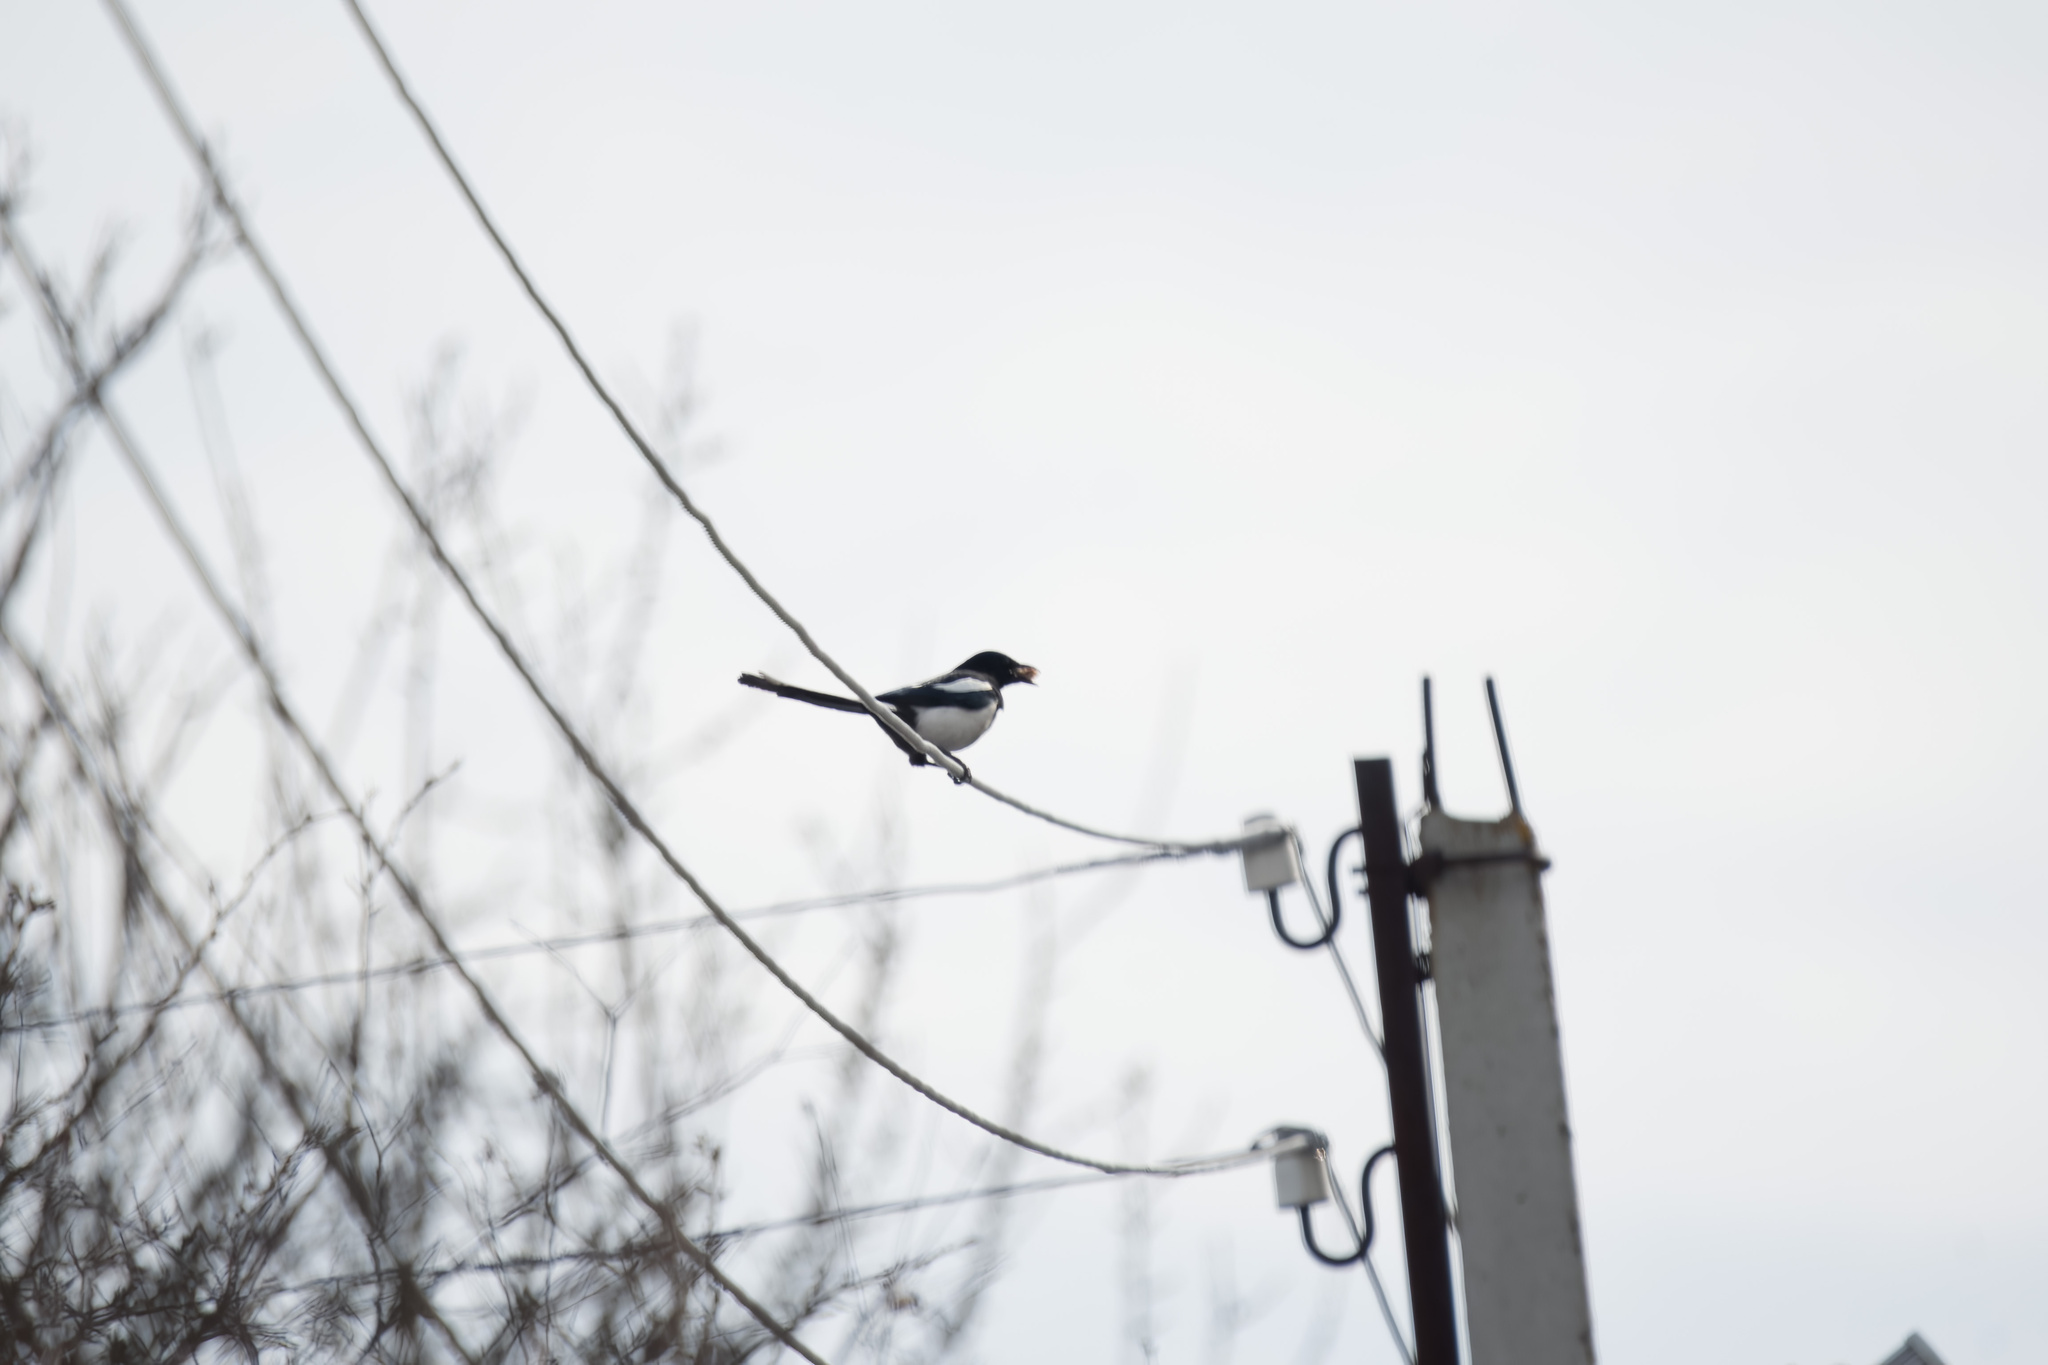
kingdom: Animalia
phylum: Chordata
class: Aves
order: Passeriformes
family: Corvidae
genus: Pica
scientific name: Pica pica
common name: Eurasian magpie
